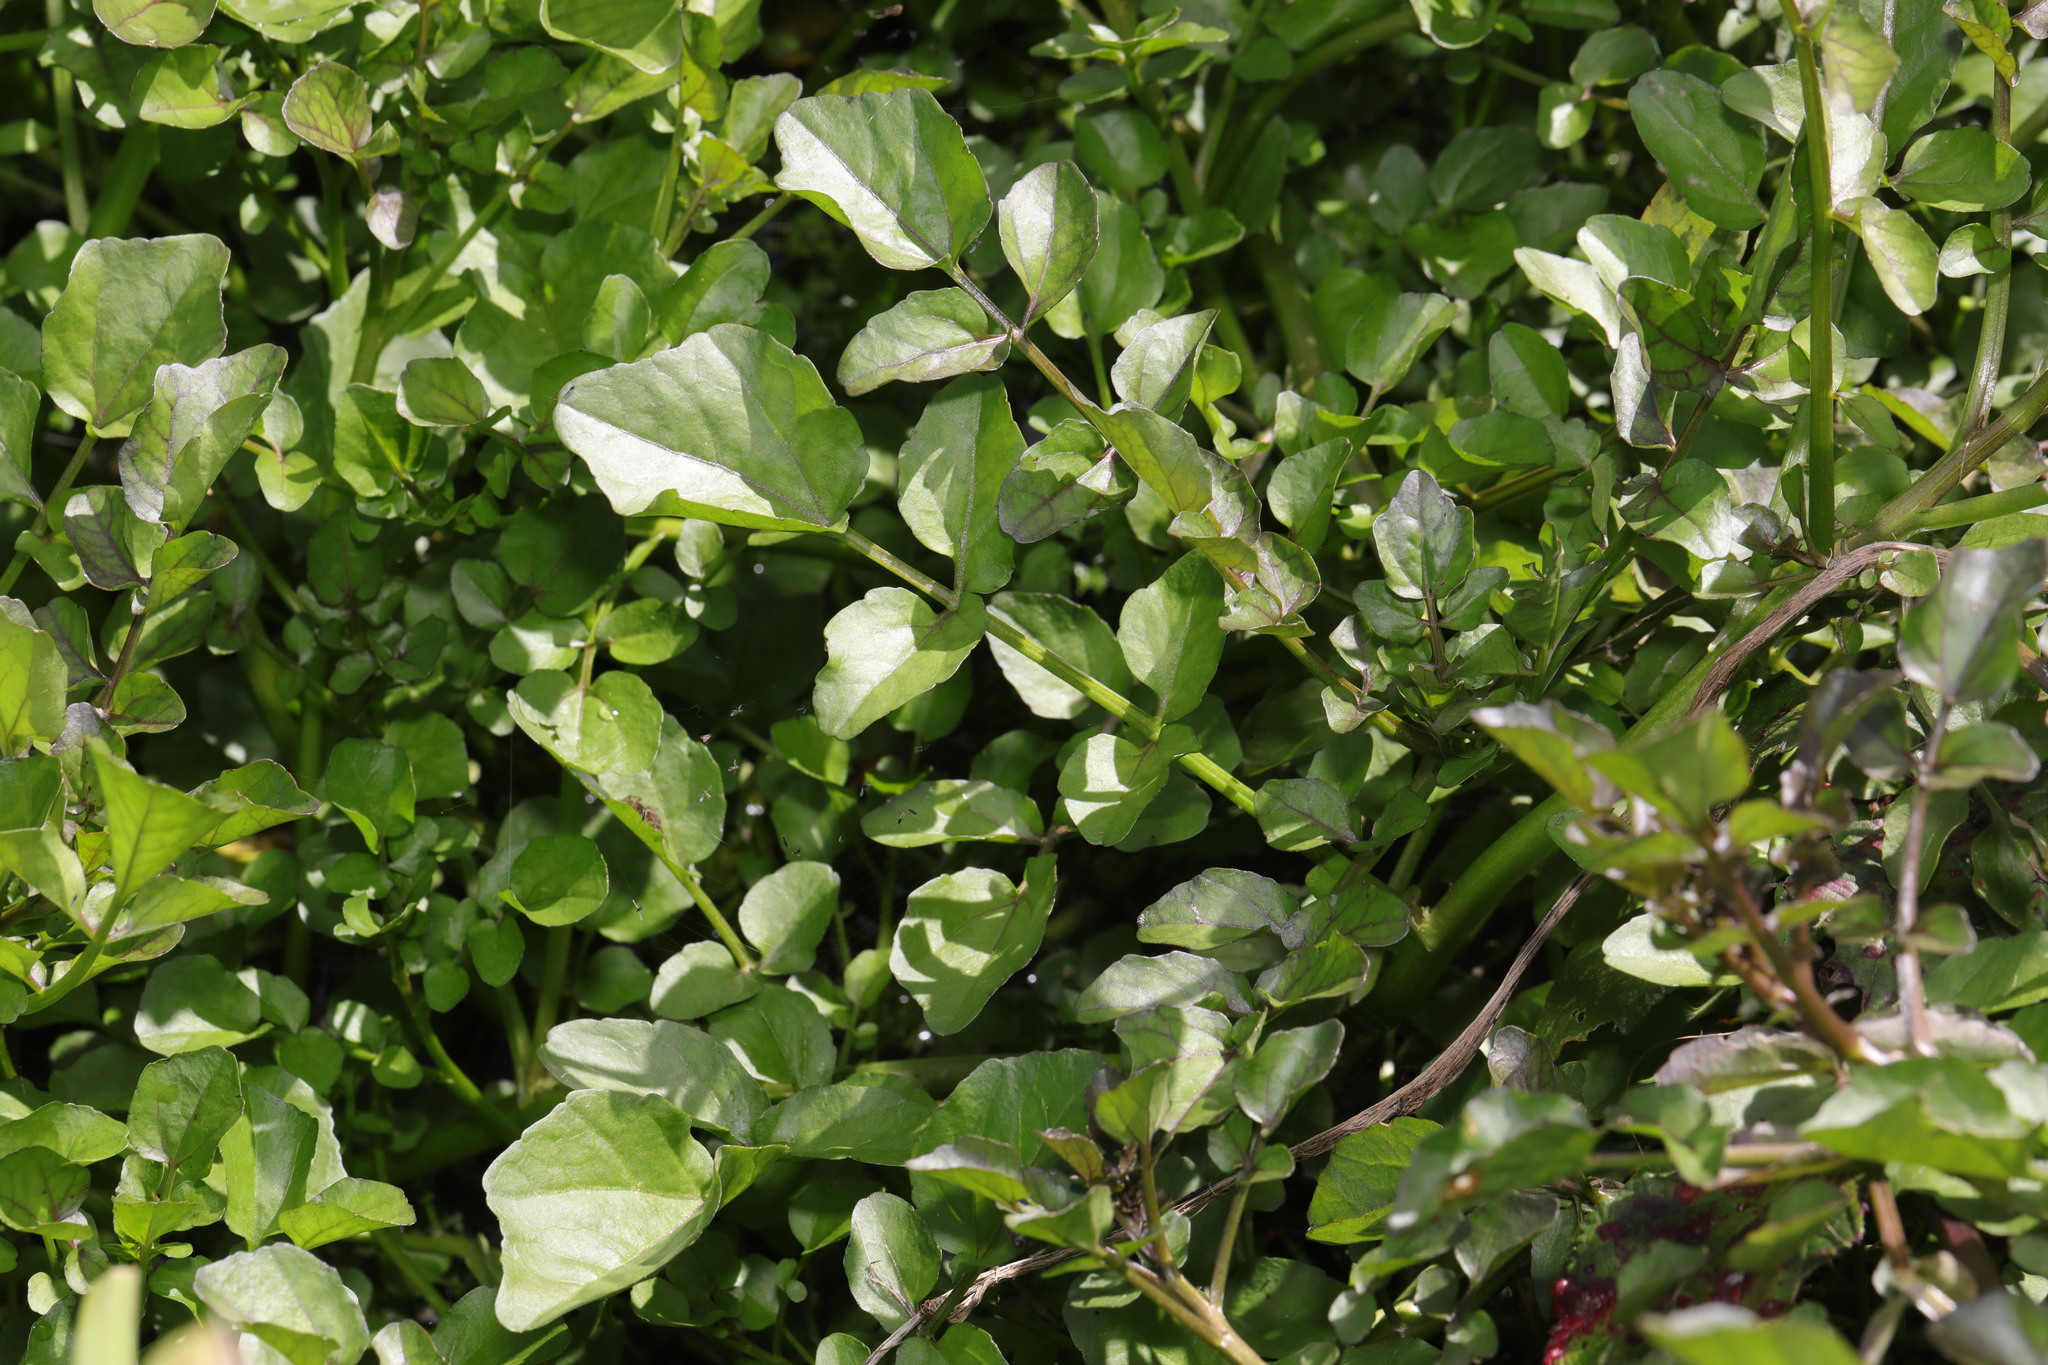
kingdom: Plantae
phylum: Tracheophyta
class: Magnoliopsida
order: Brassicales
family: Brassicaceae
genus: Nasturtium
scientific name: Nasturtium officinale
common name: Watercress
